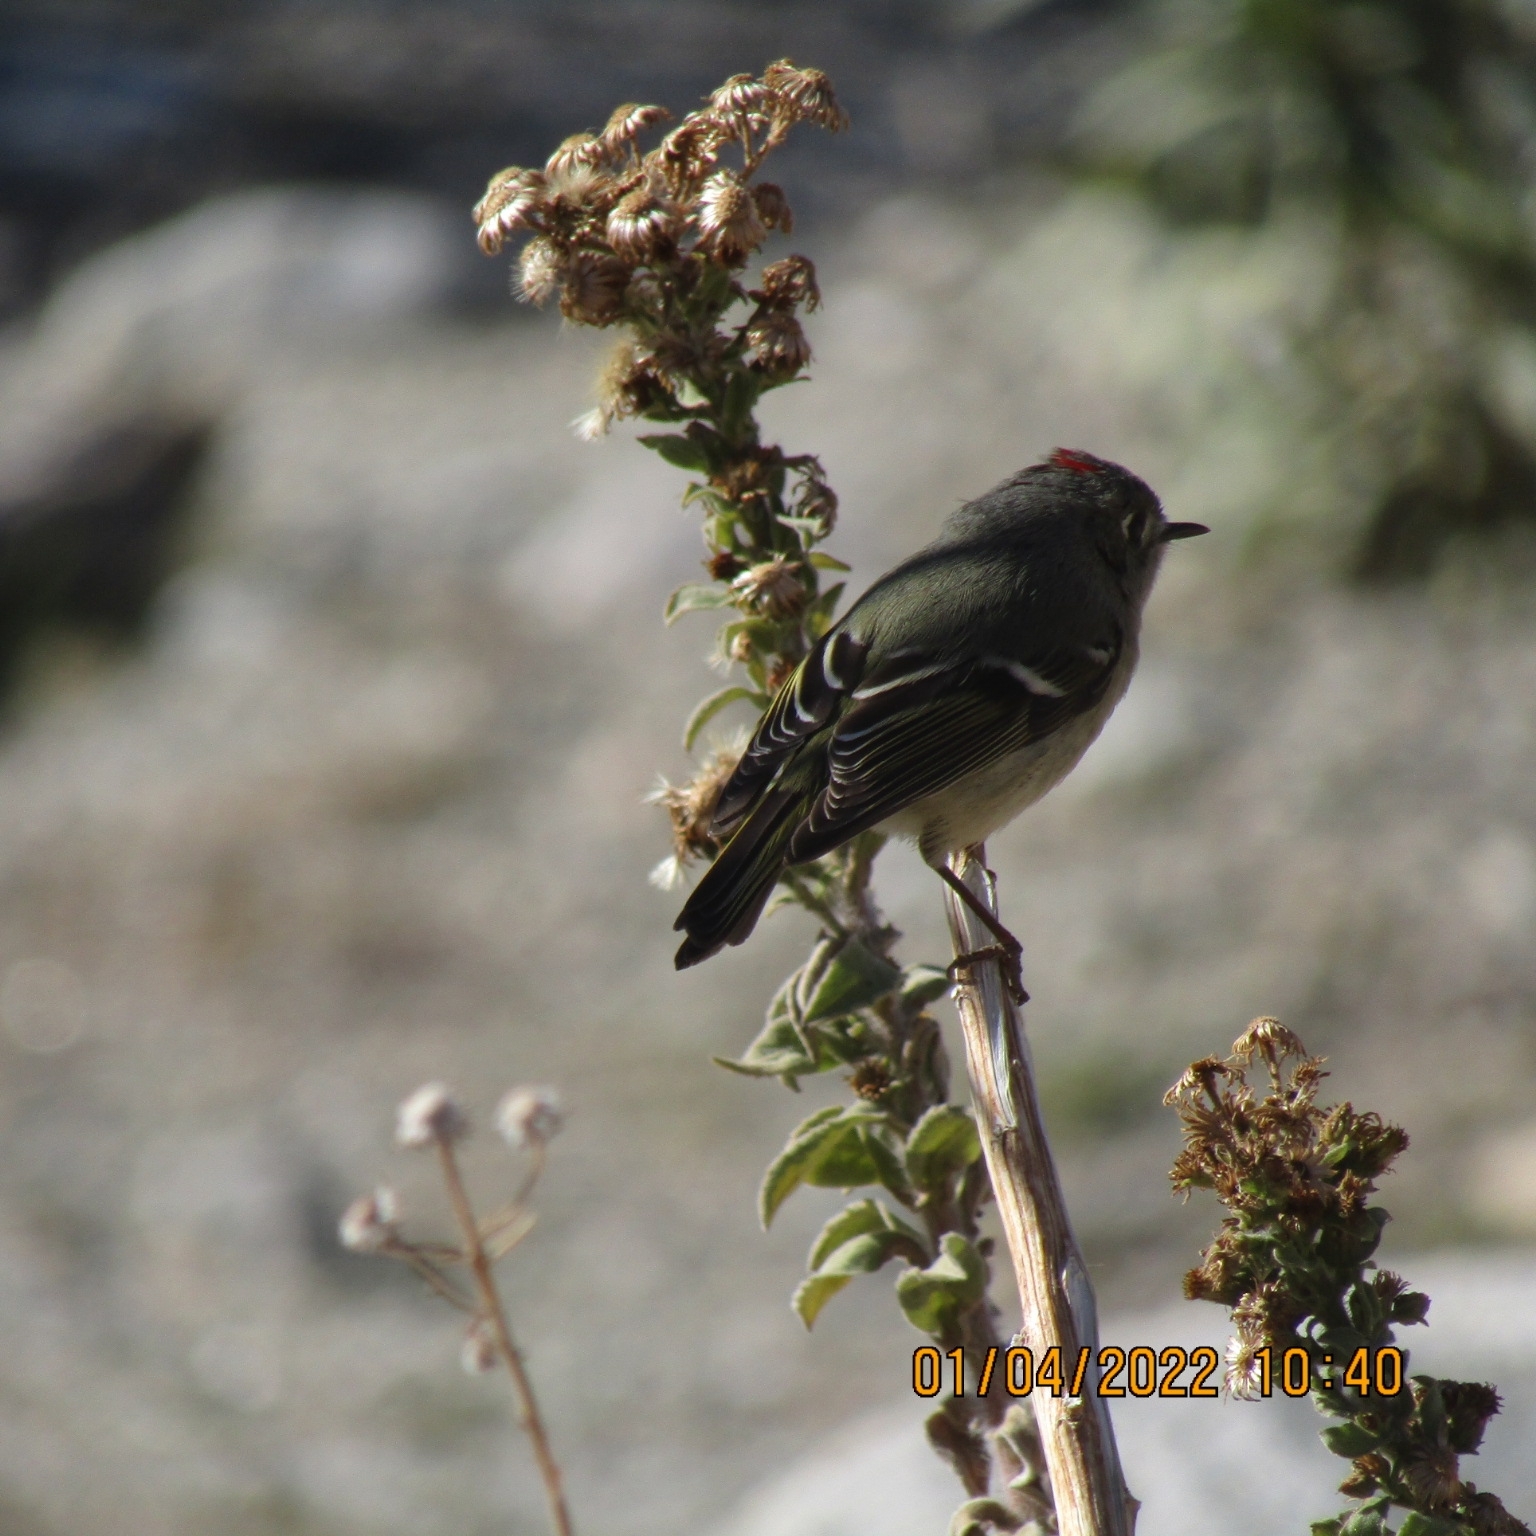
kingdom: Animalia
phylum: Chordata
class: Aves
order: Passeriformes
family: Regulidae
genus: Regulus
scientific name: Regulus calendula
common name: Ruby-crowned kinglet
